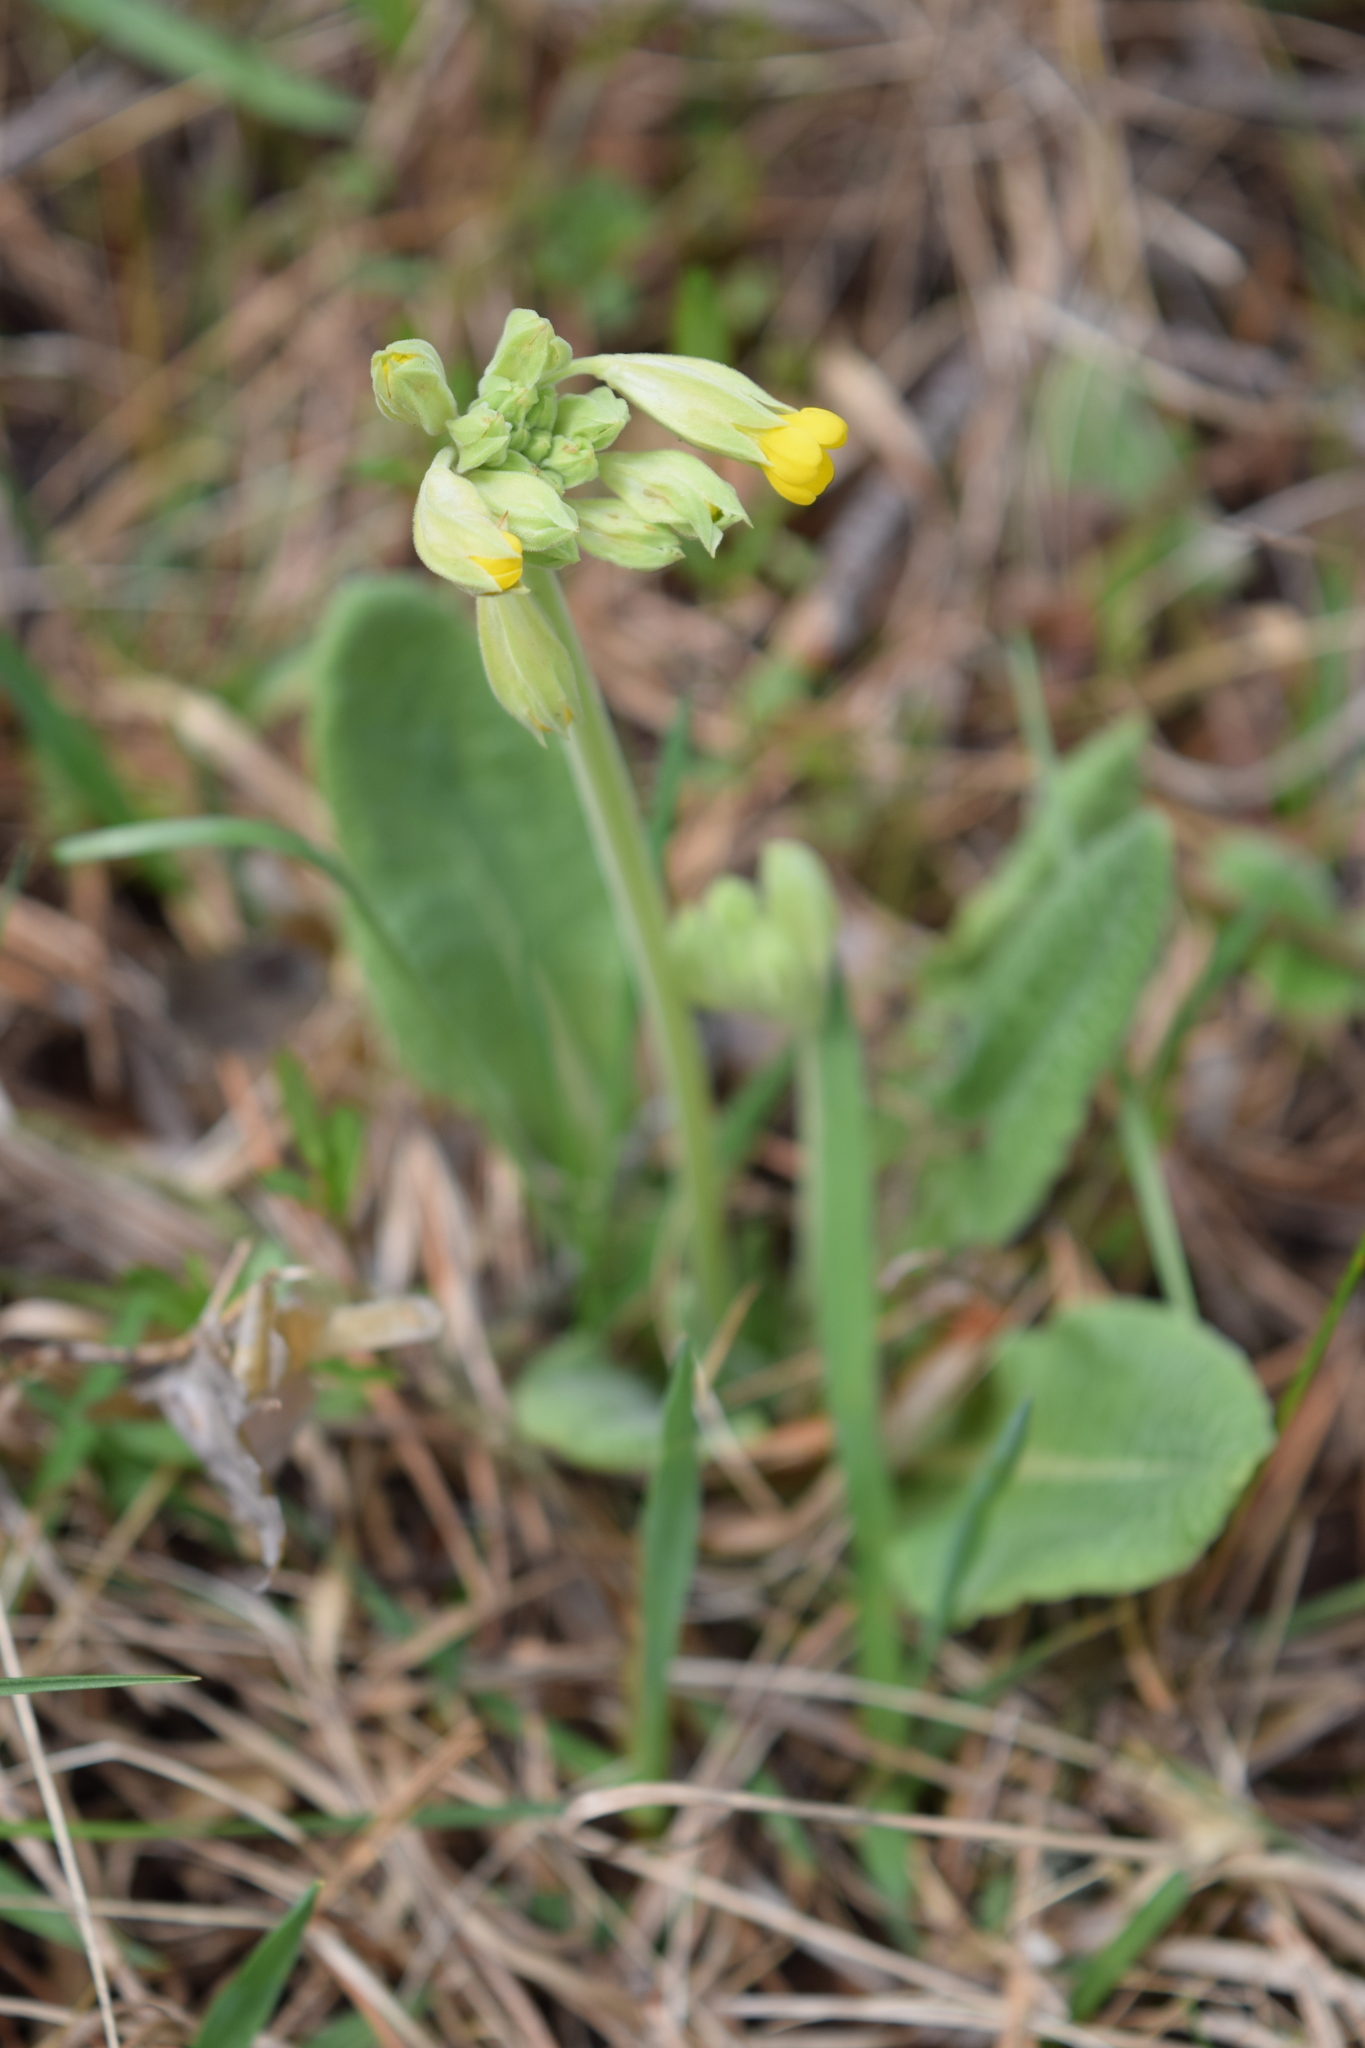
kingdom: Plantae
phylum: Tracheophyta
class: Magnoliopsida
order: Ericales
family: Primulaceae
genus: Primula
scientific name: Primula veris
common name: Cowslip
